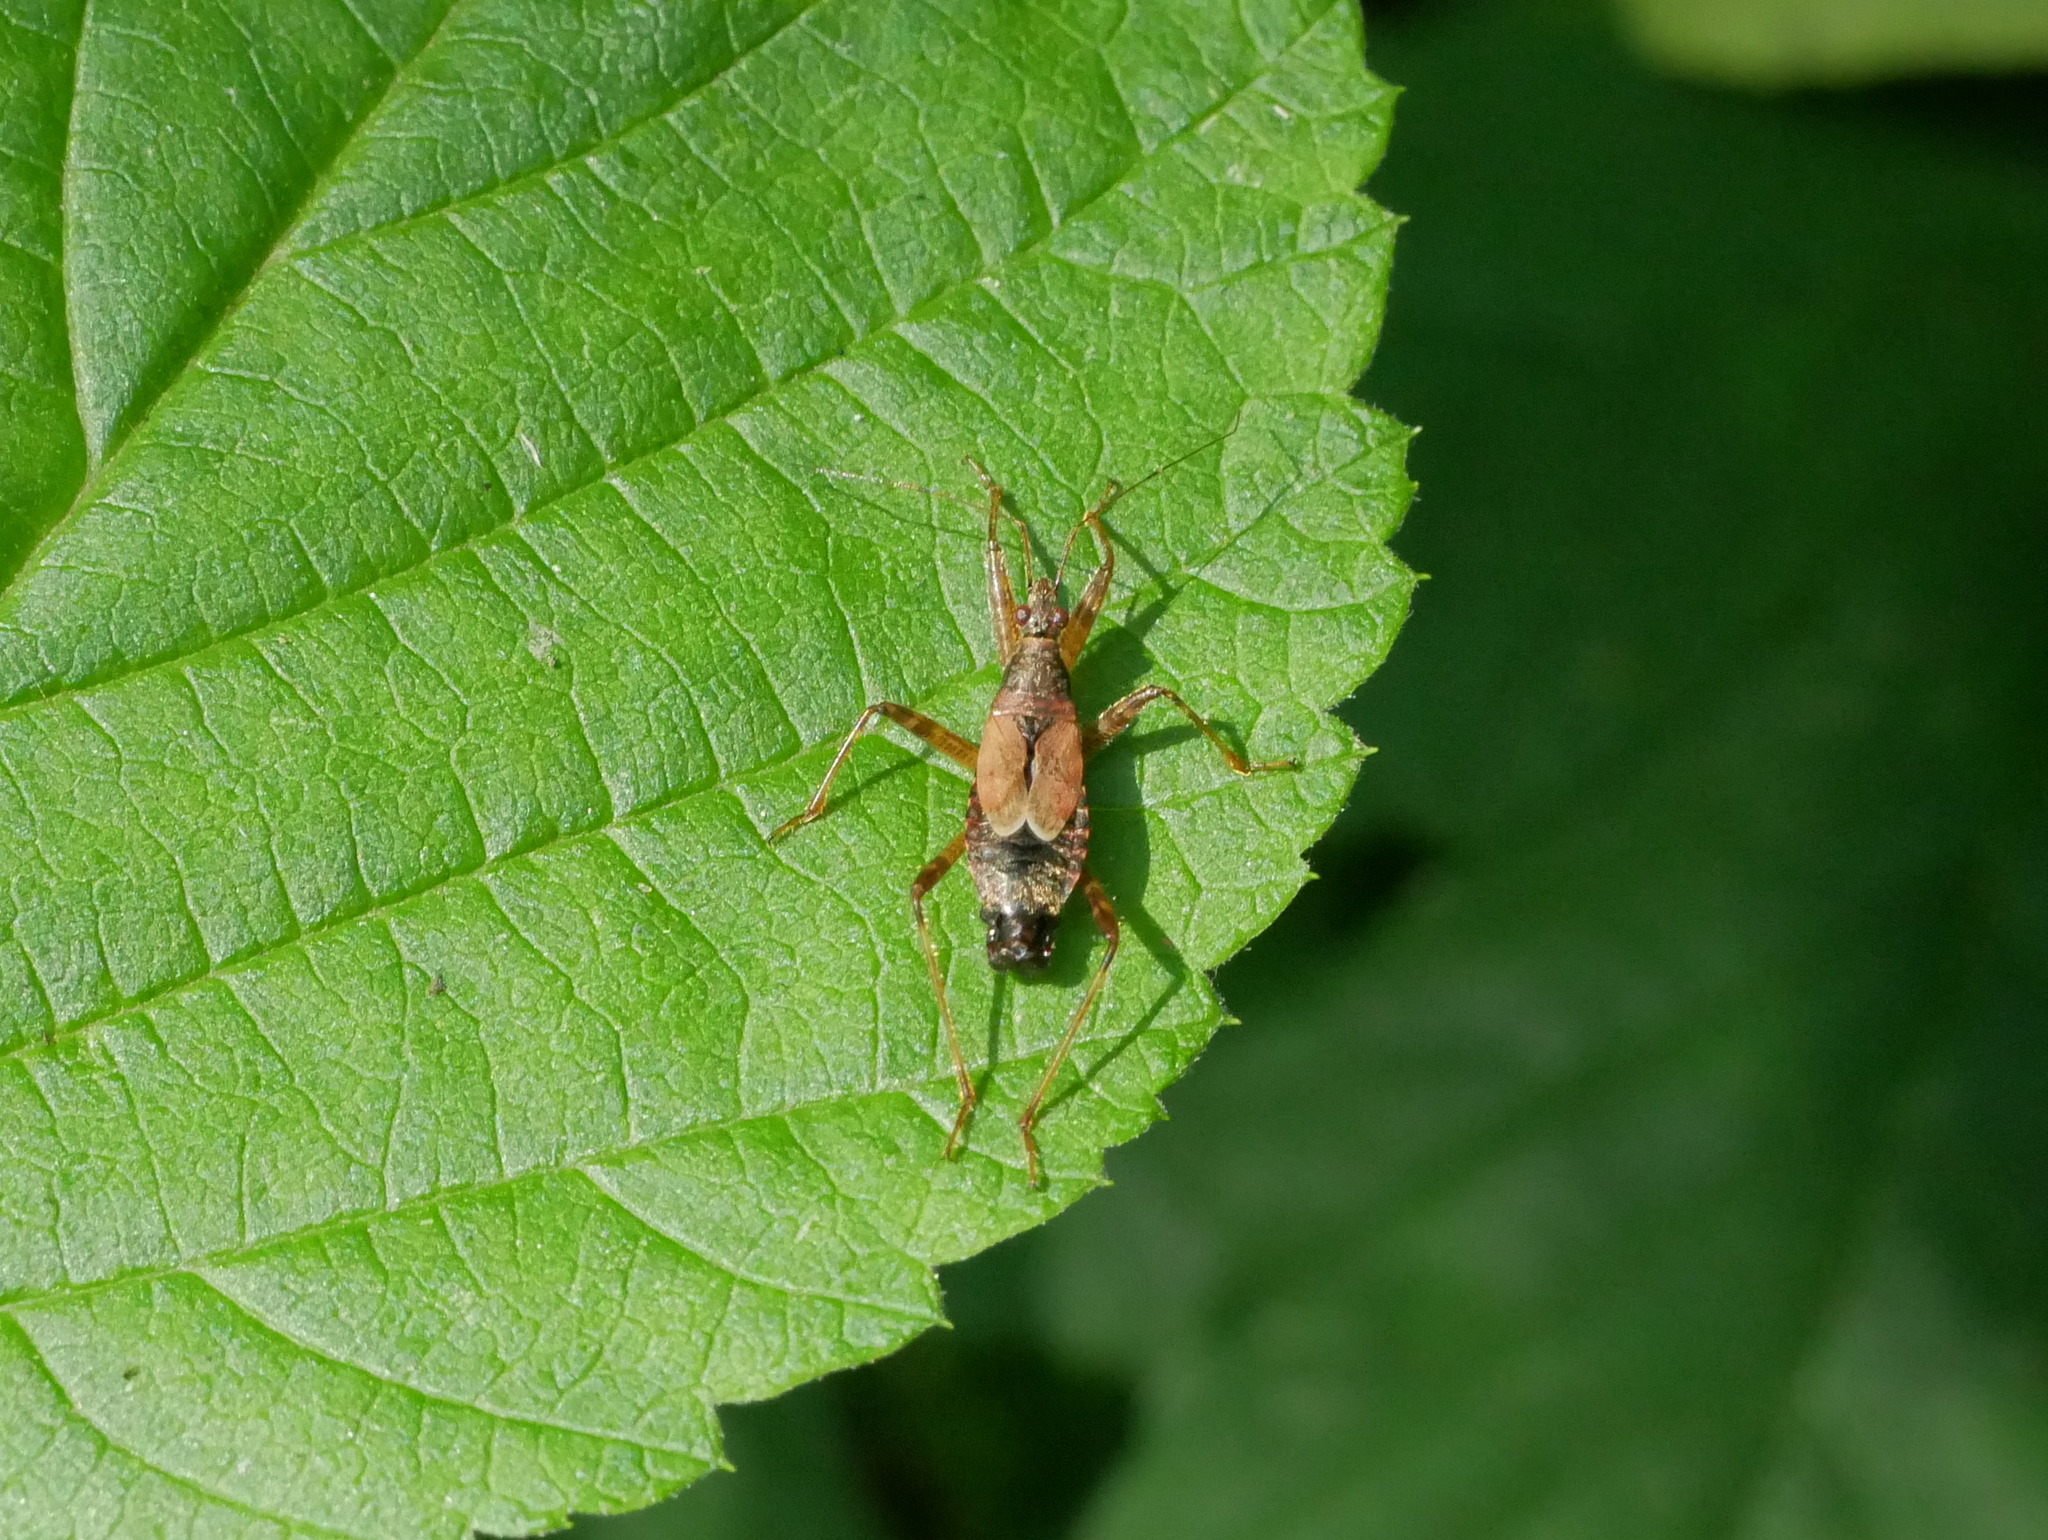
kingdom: Animalia
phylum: Arthropoda
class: Insecta
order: Hemiptera
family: Nabidae
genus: Himacerus
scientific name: Himacerus apterus
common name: Tree damsel bug
